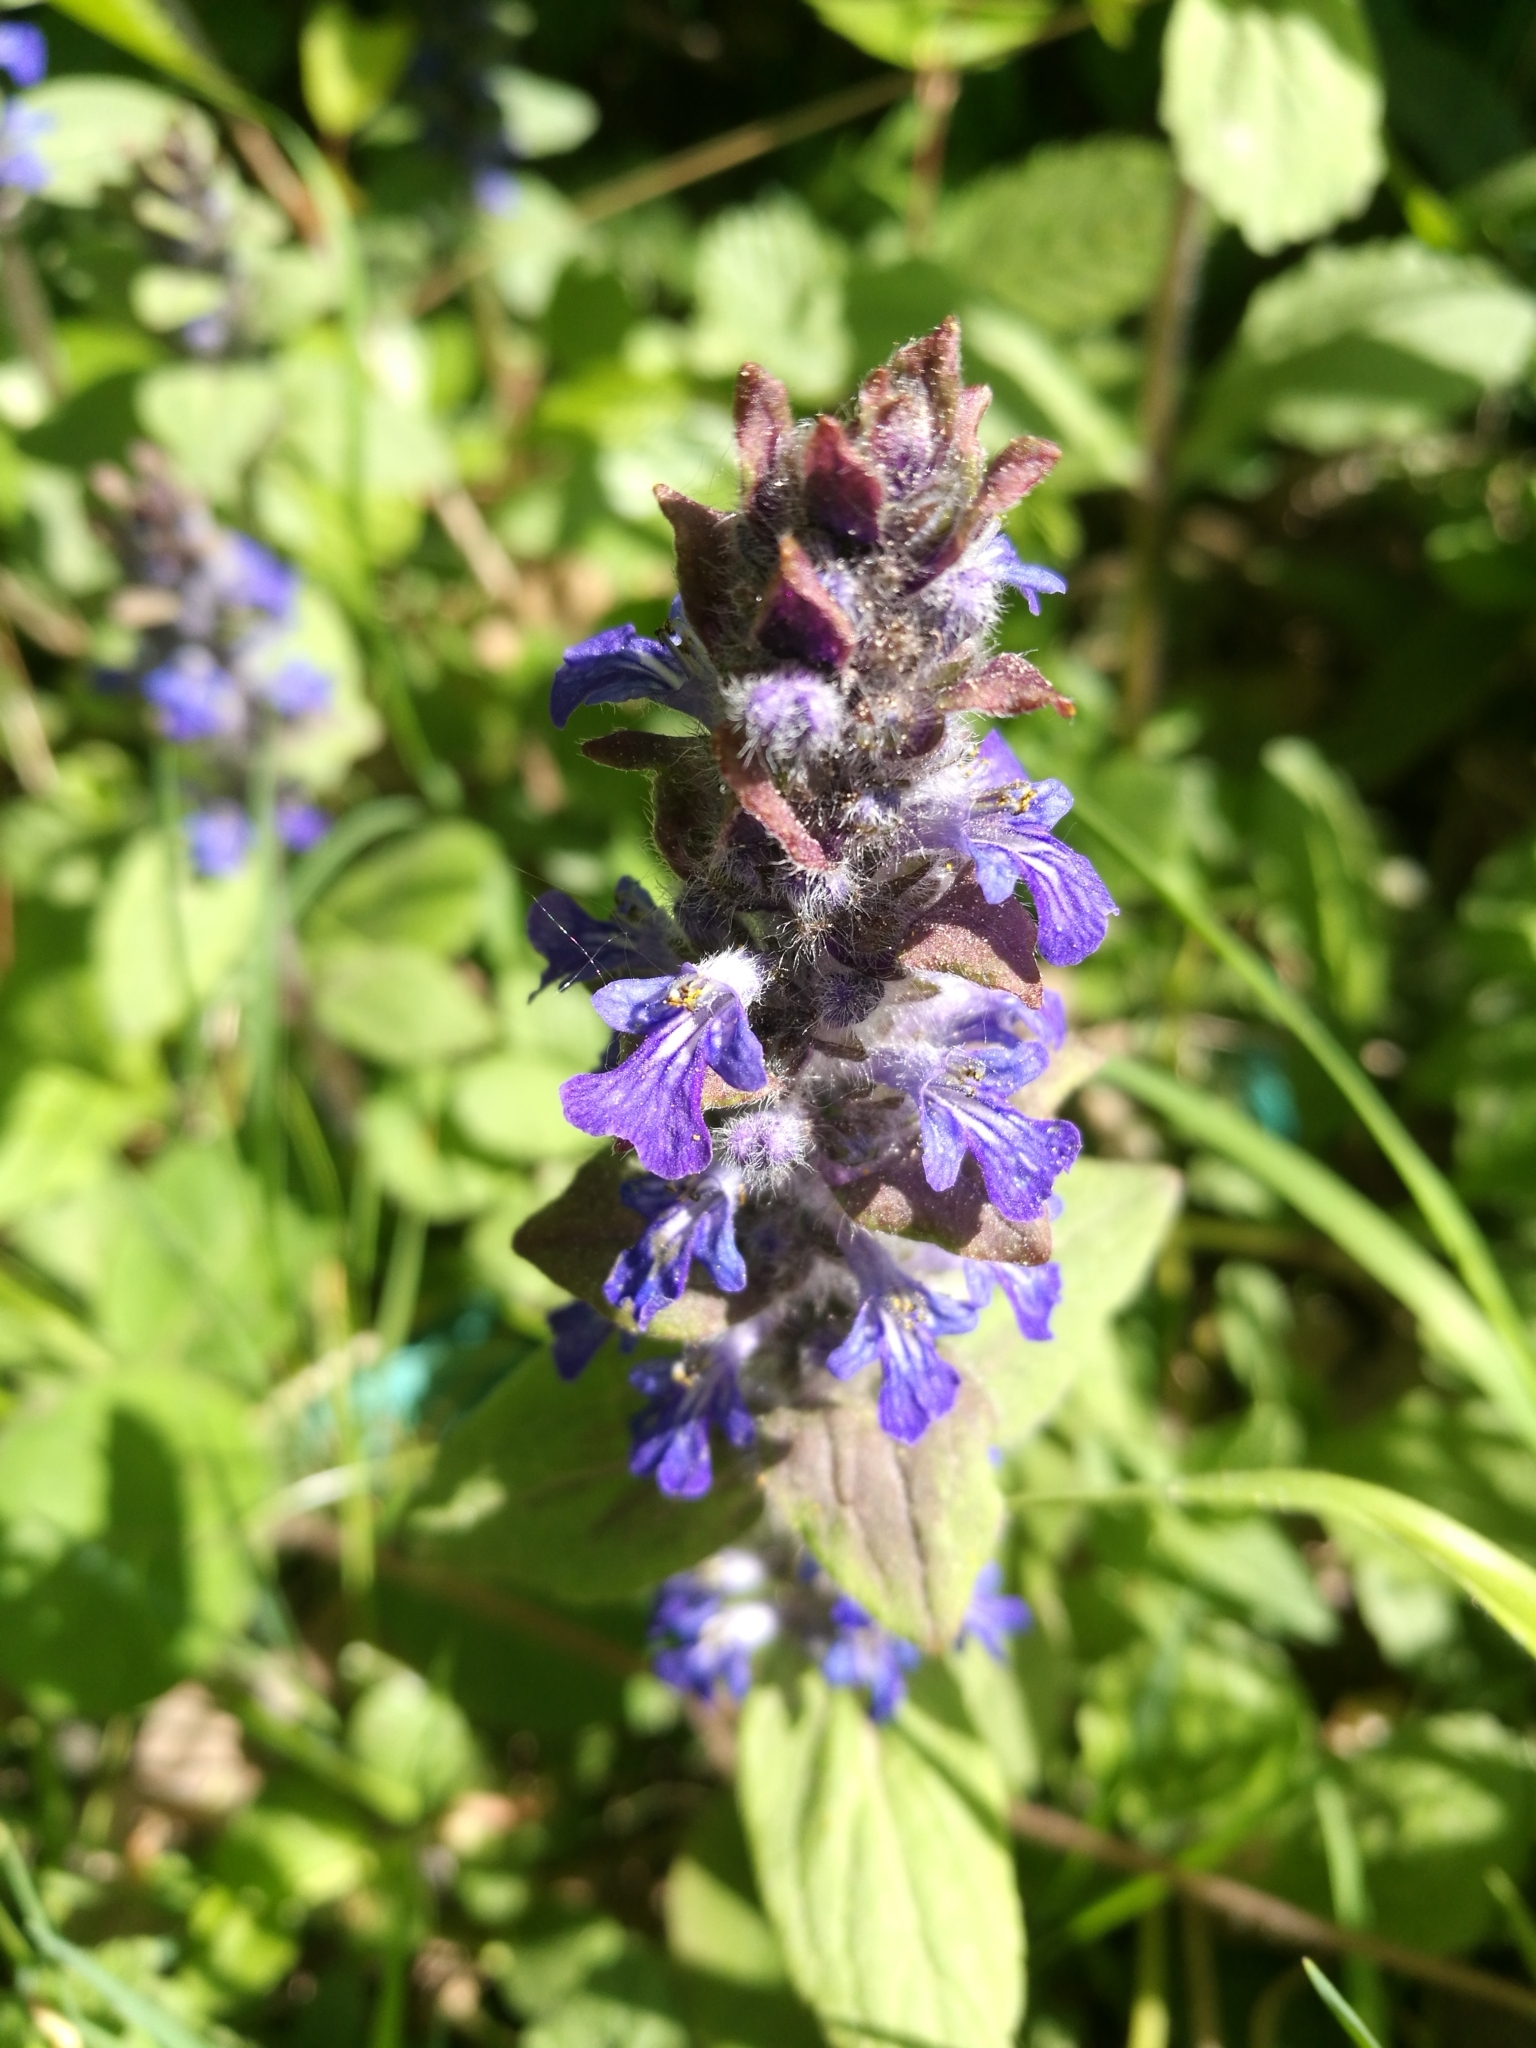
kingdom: Plantae
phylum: Tracheophyta
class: Magnoliopsida
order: Lamiales
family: Lamiaceae
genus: Ajuga
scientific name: Ajuga reptans
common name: Bugle
